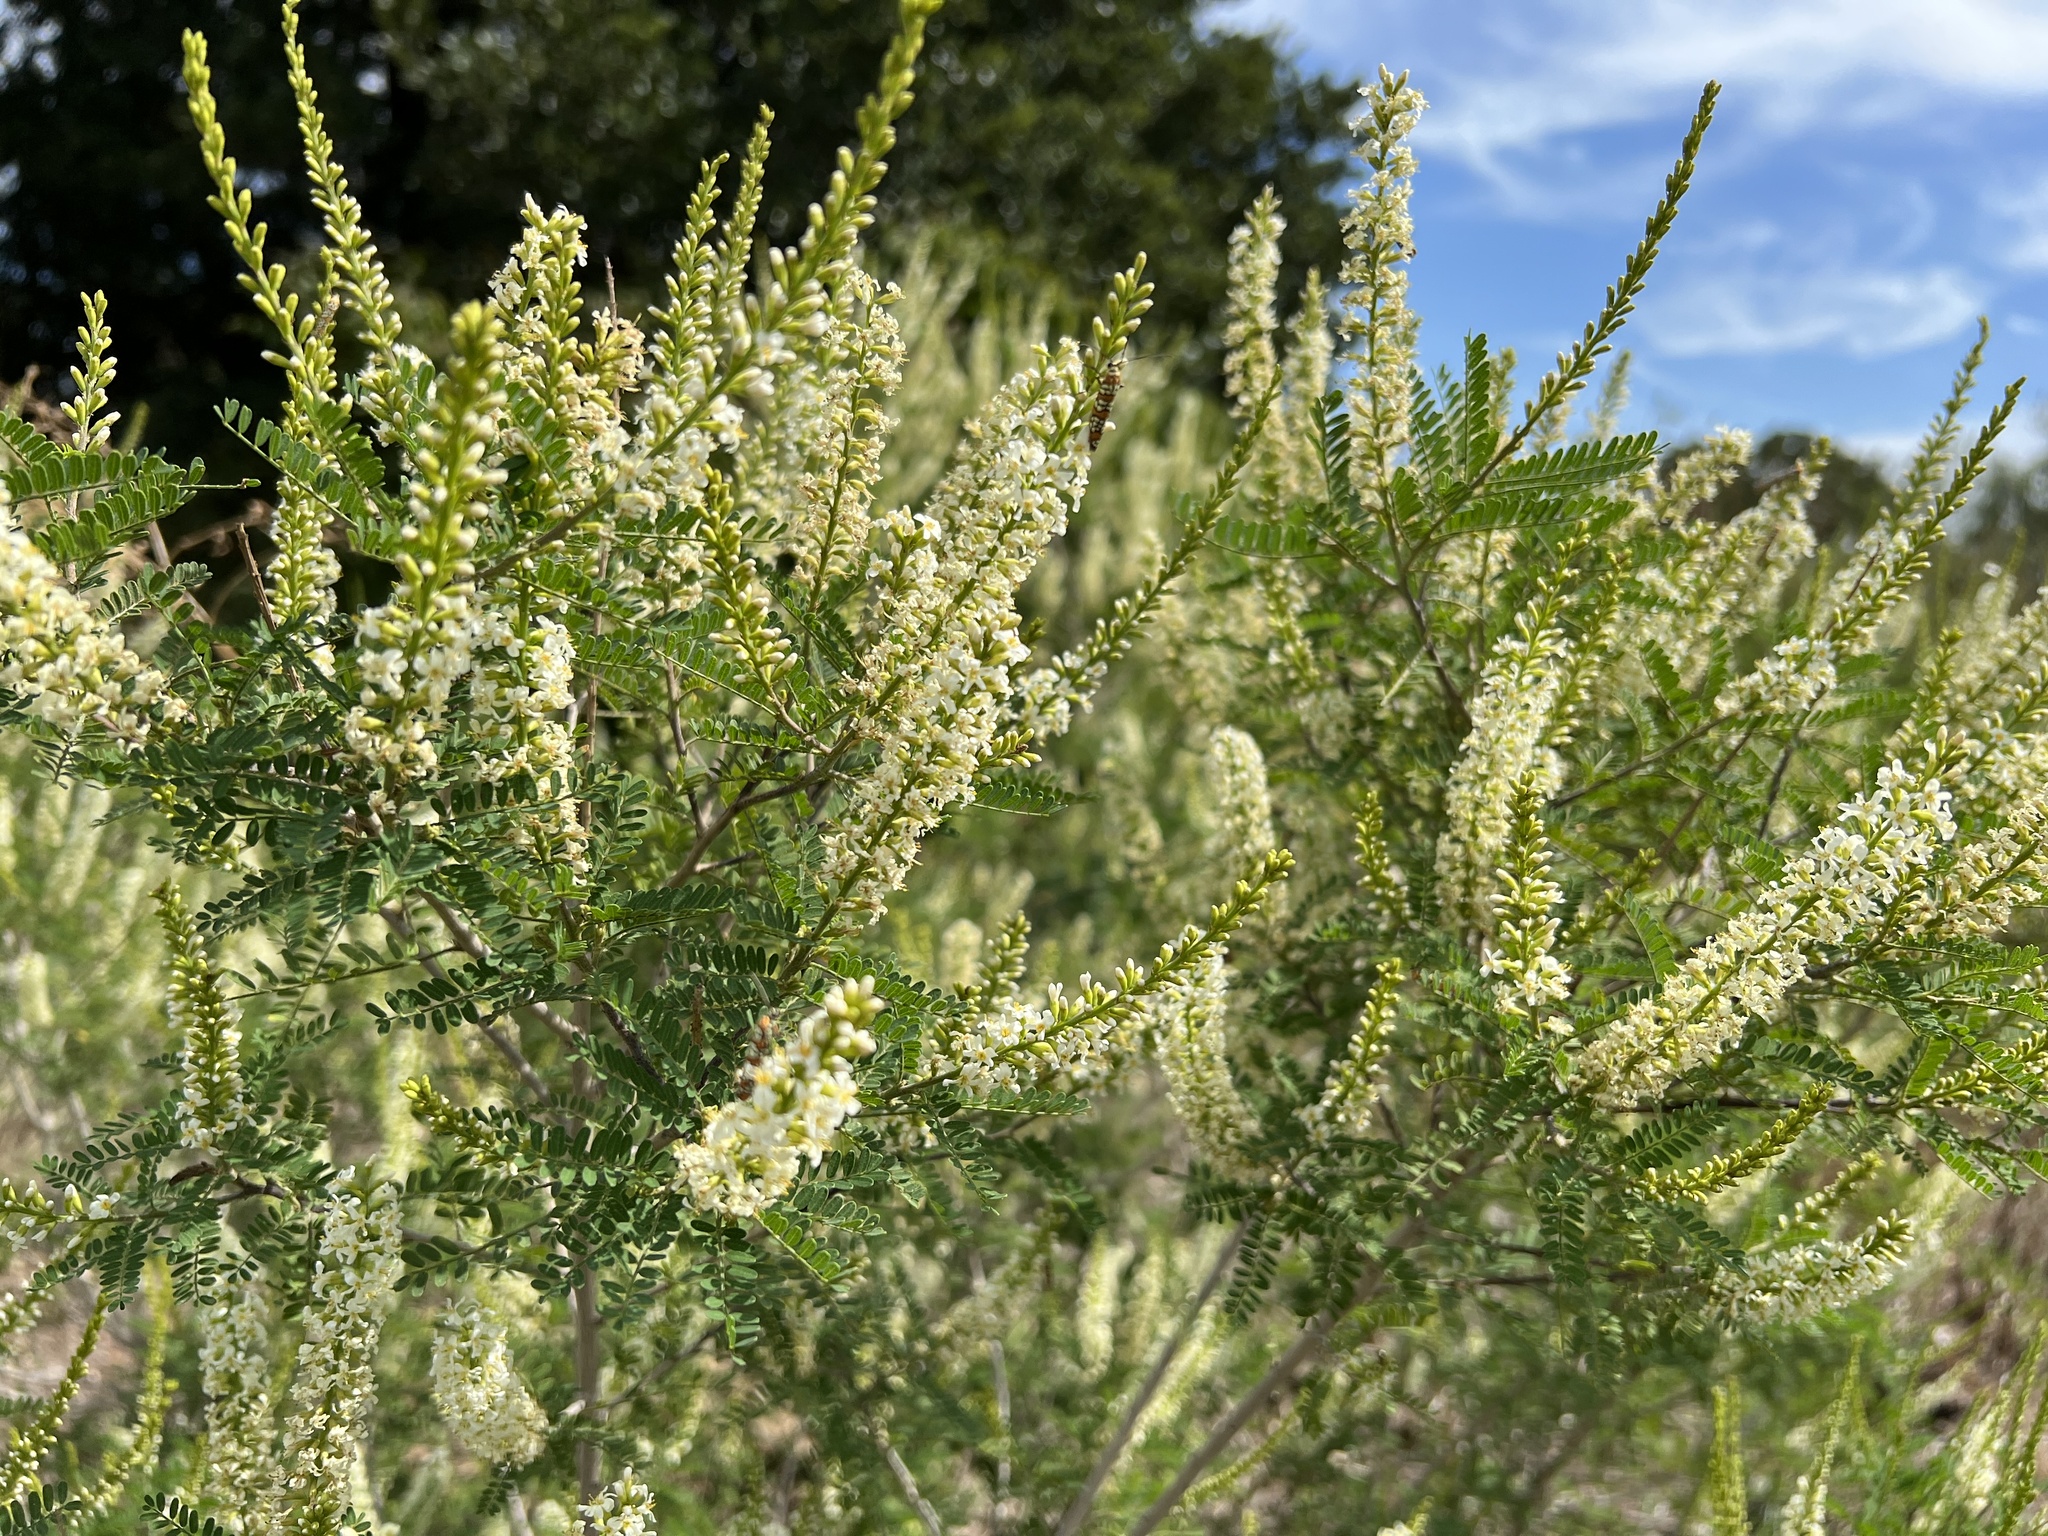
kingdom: Plantae
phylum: Tracheophyta
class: Magnoliopsida
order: Fabales
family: Fabaceae
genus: Eysenhardtia
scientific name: Eysenhardtia texana
